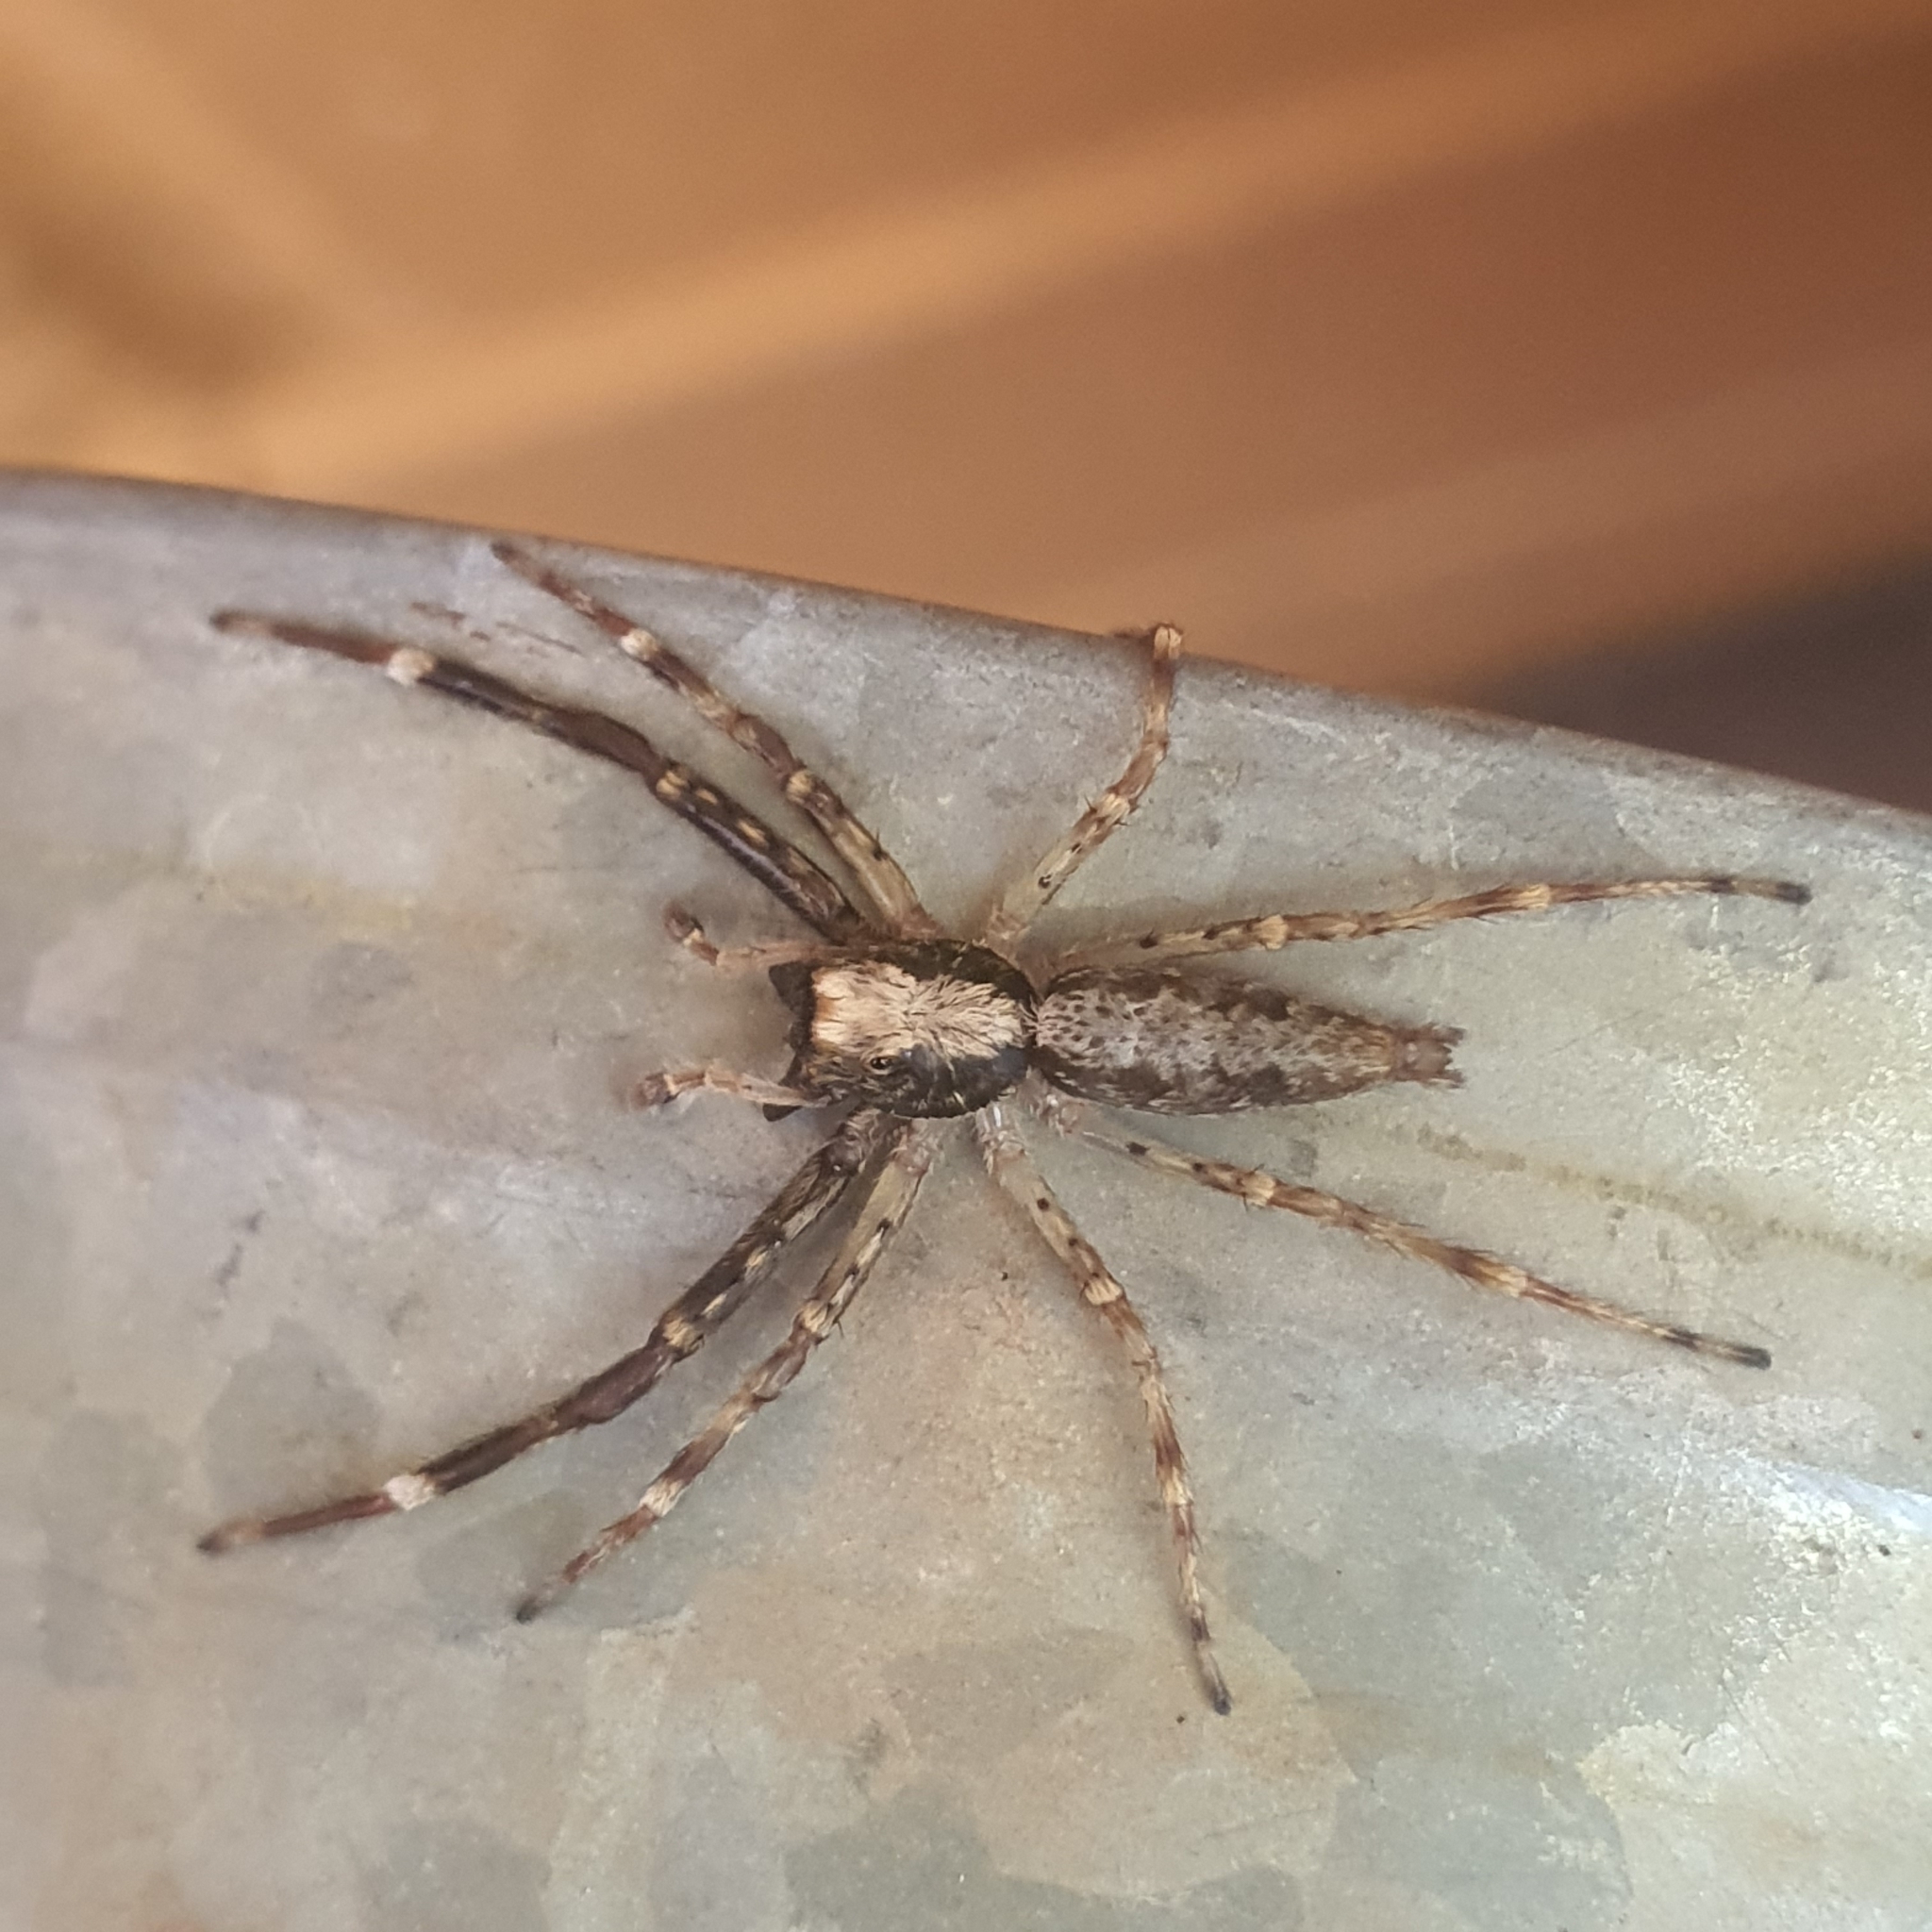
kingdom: Animalia
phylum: Arthropoda
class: Arachnida
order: Araneae
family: Salticidae
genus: Helpis
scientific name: Helpis minitabunda
